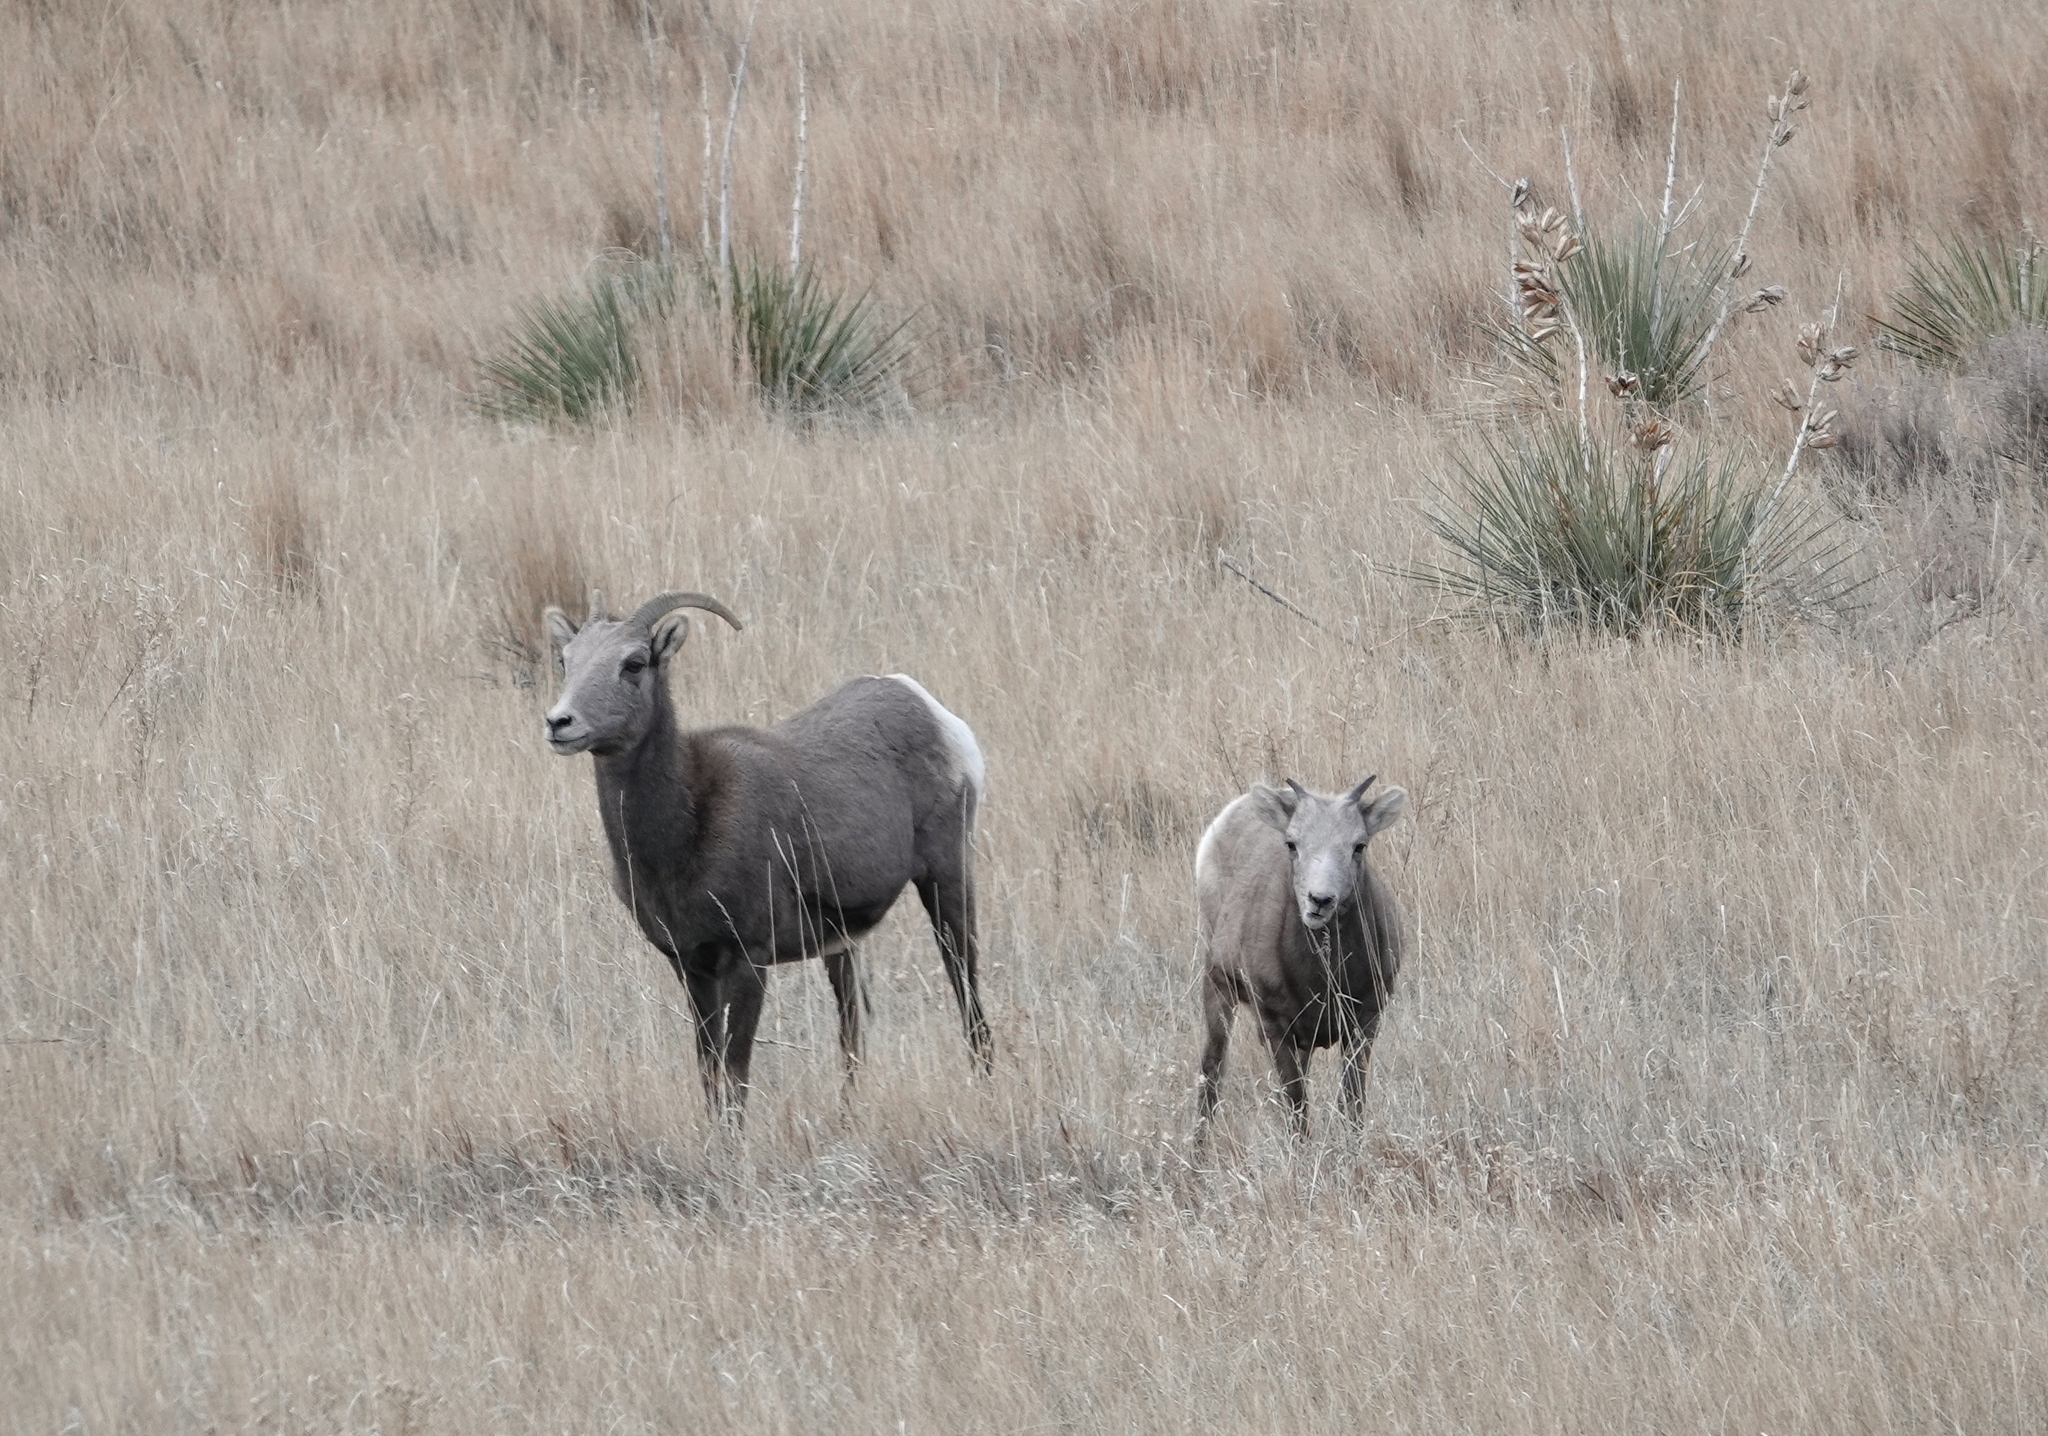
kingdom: Animalia
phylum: Chordata
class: Mammalia
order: Artiodactyla
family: Bovidae
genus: Ovis
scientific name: Ovis canadensis
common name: Bighorn sheep
